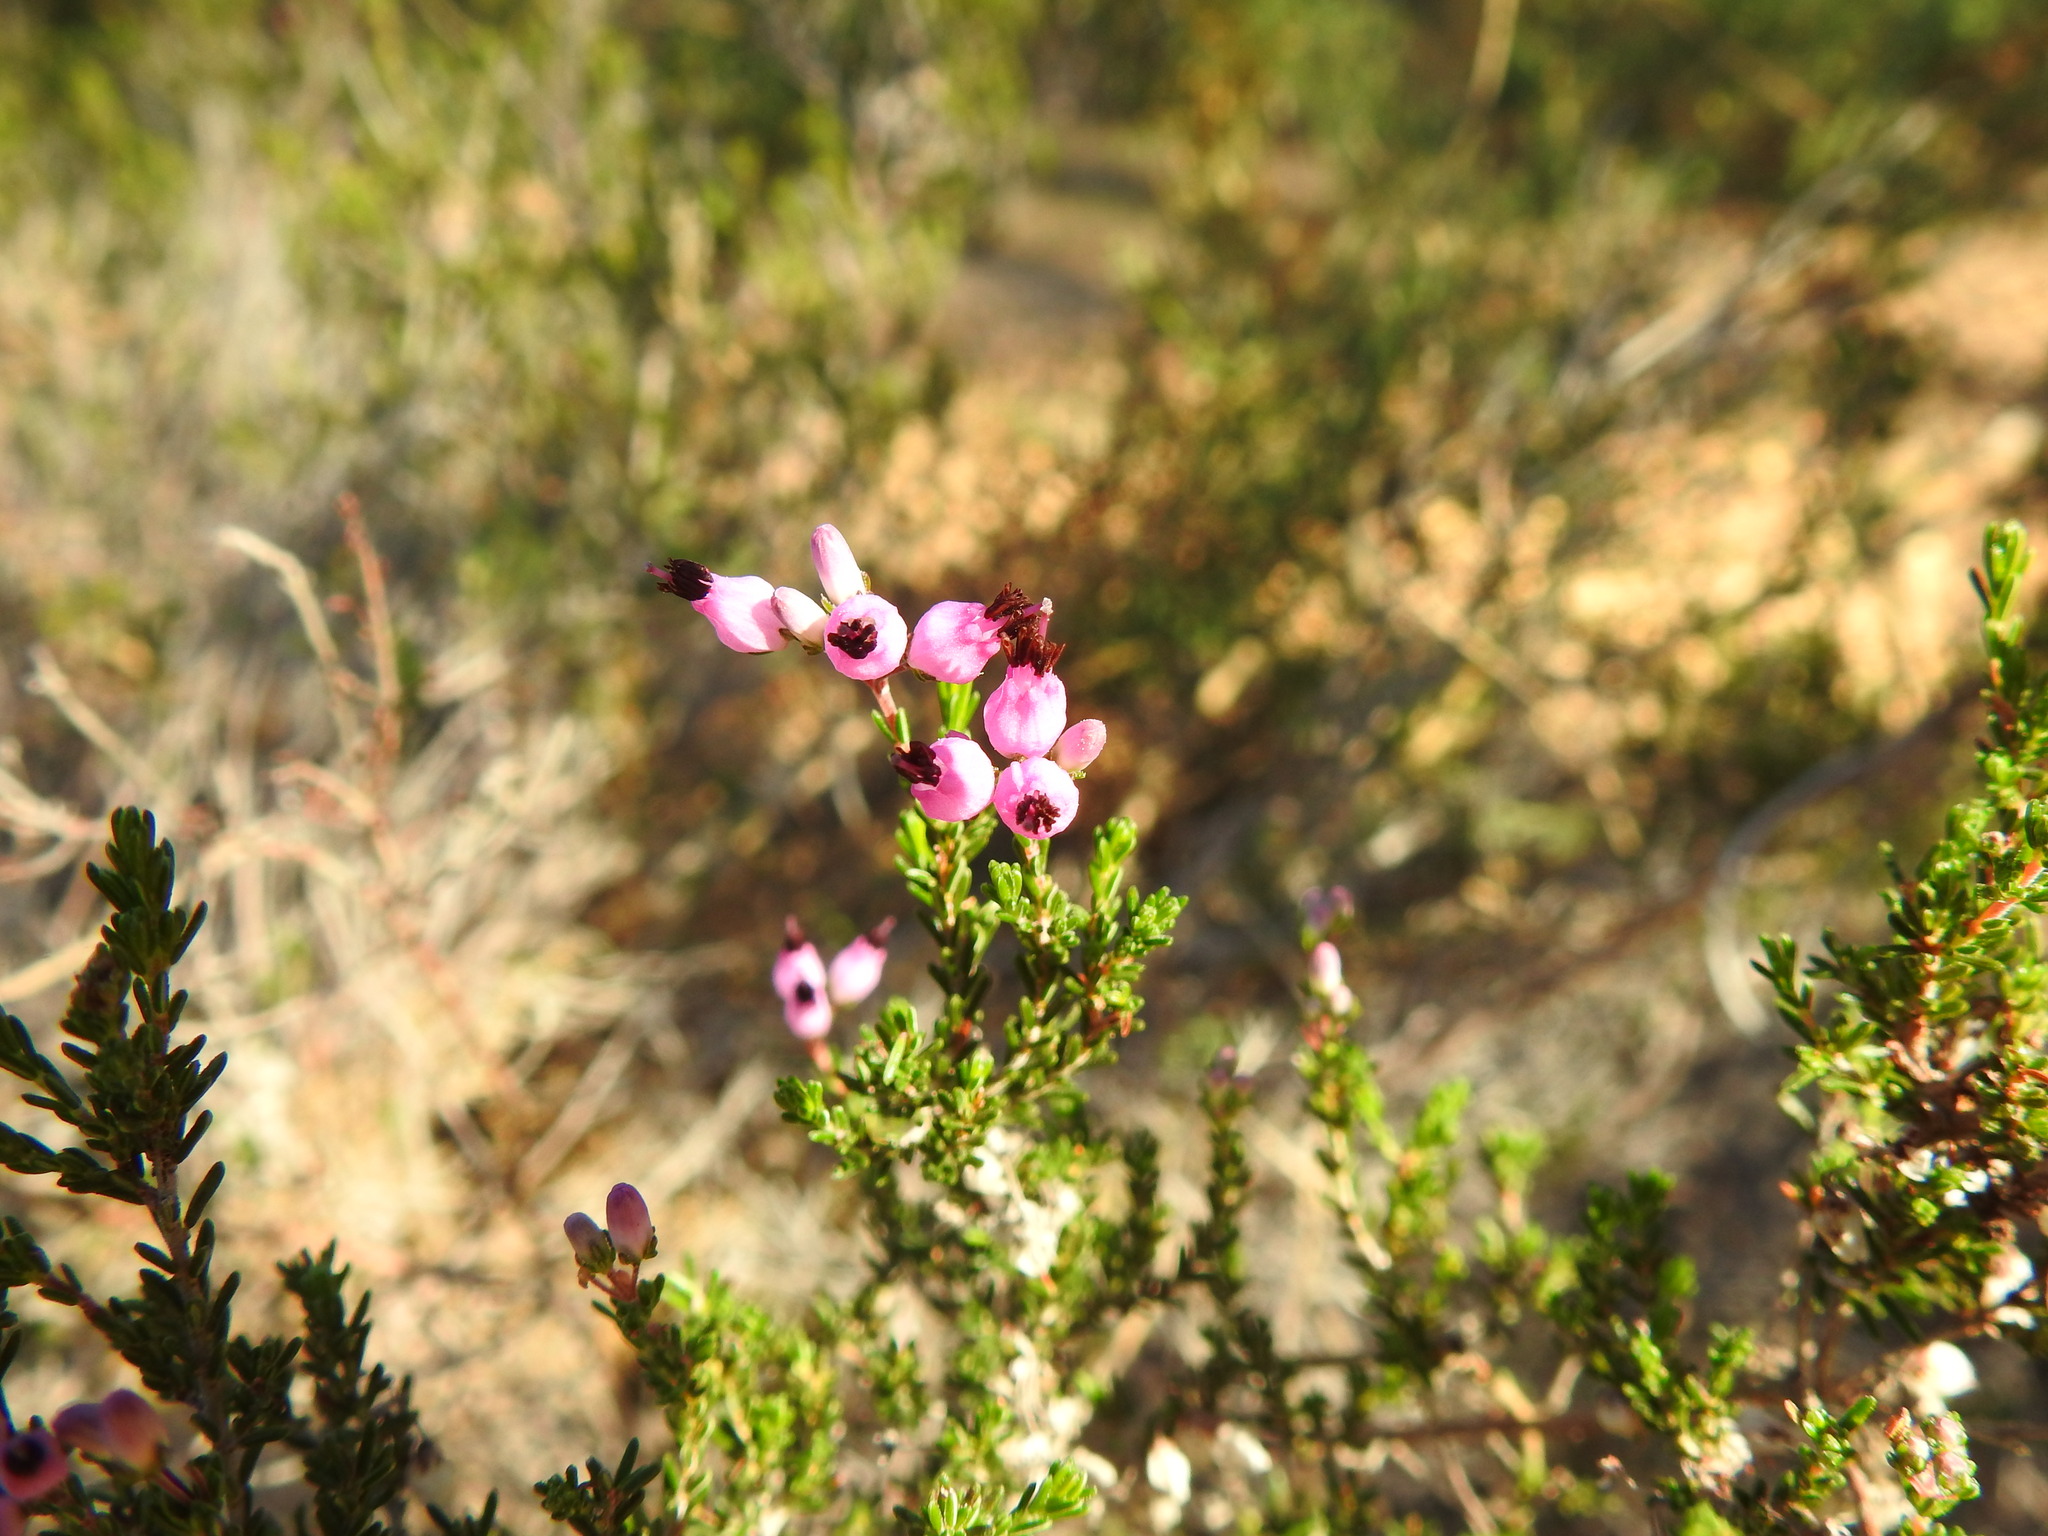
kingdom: Plantae
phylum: Tracheophyta
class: Magnoliopsida
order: Ericales
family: Ericaceae
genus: Erica
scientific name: Erica umbellata
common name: Dwarf spanish heath
